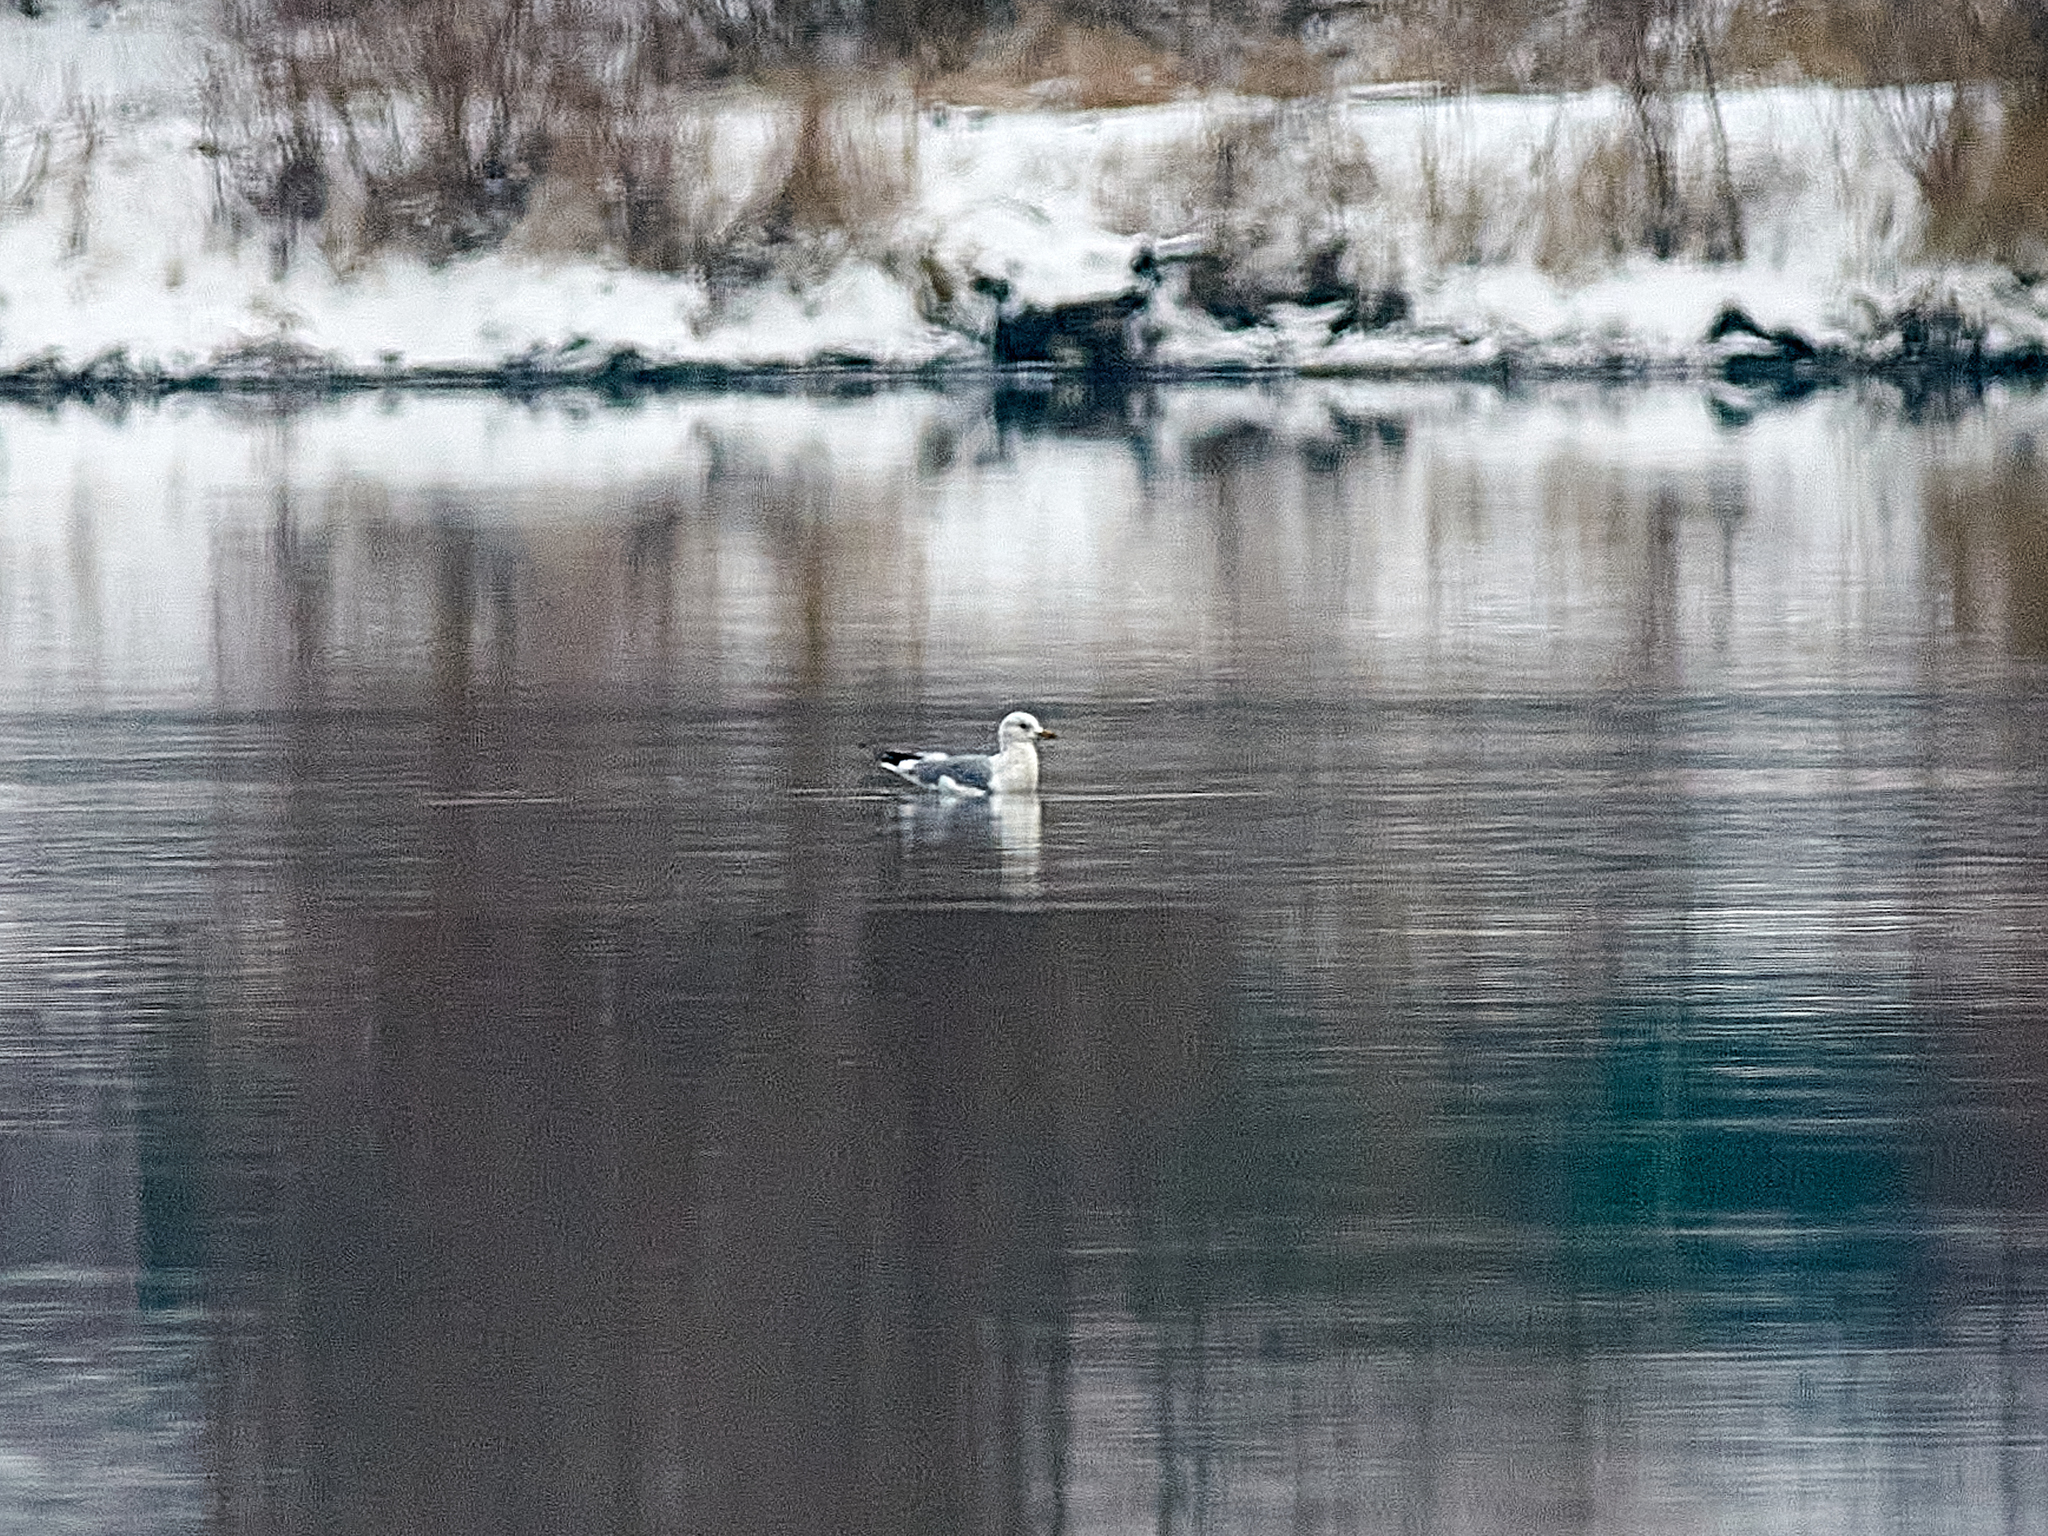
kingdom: Animalia
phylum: Chordata
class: Aves
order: Charadriiformes
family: Laridae
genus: Larus
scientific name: Larus canus
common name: Mew gull
